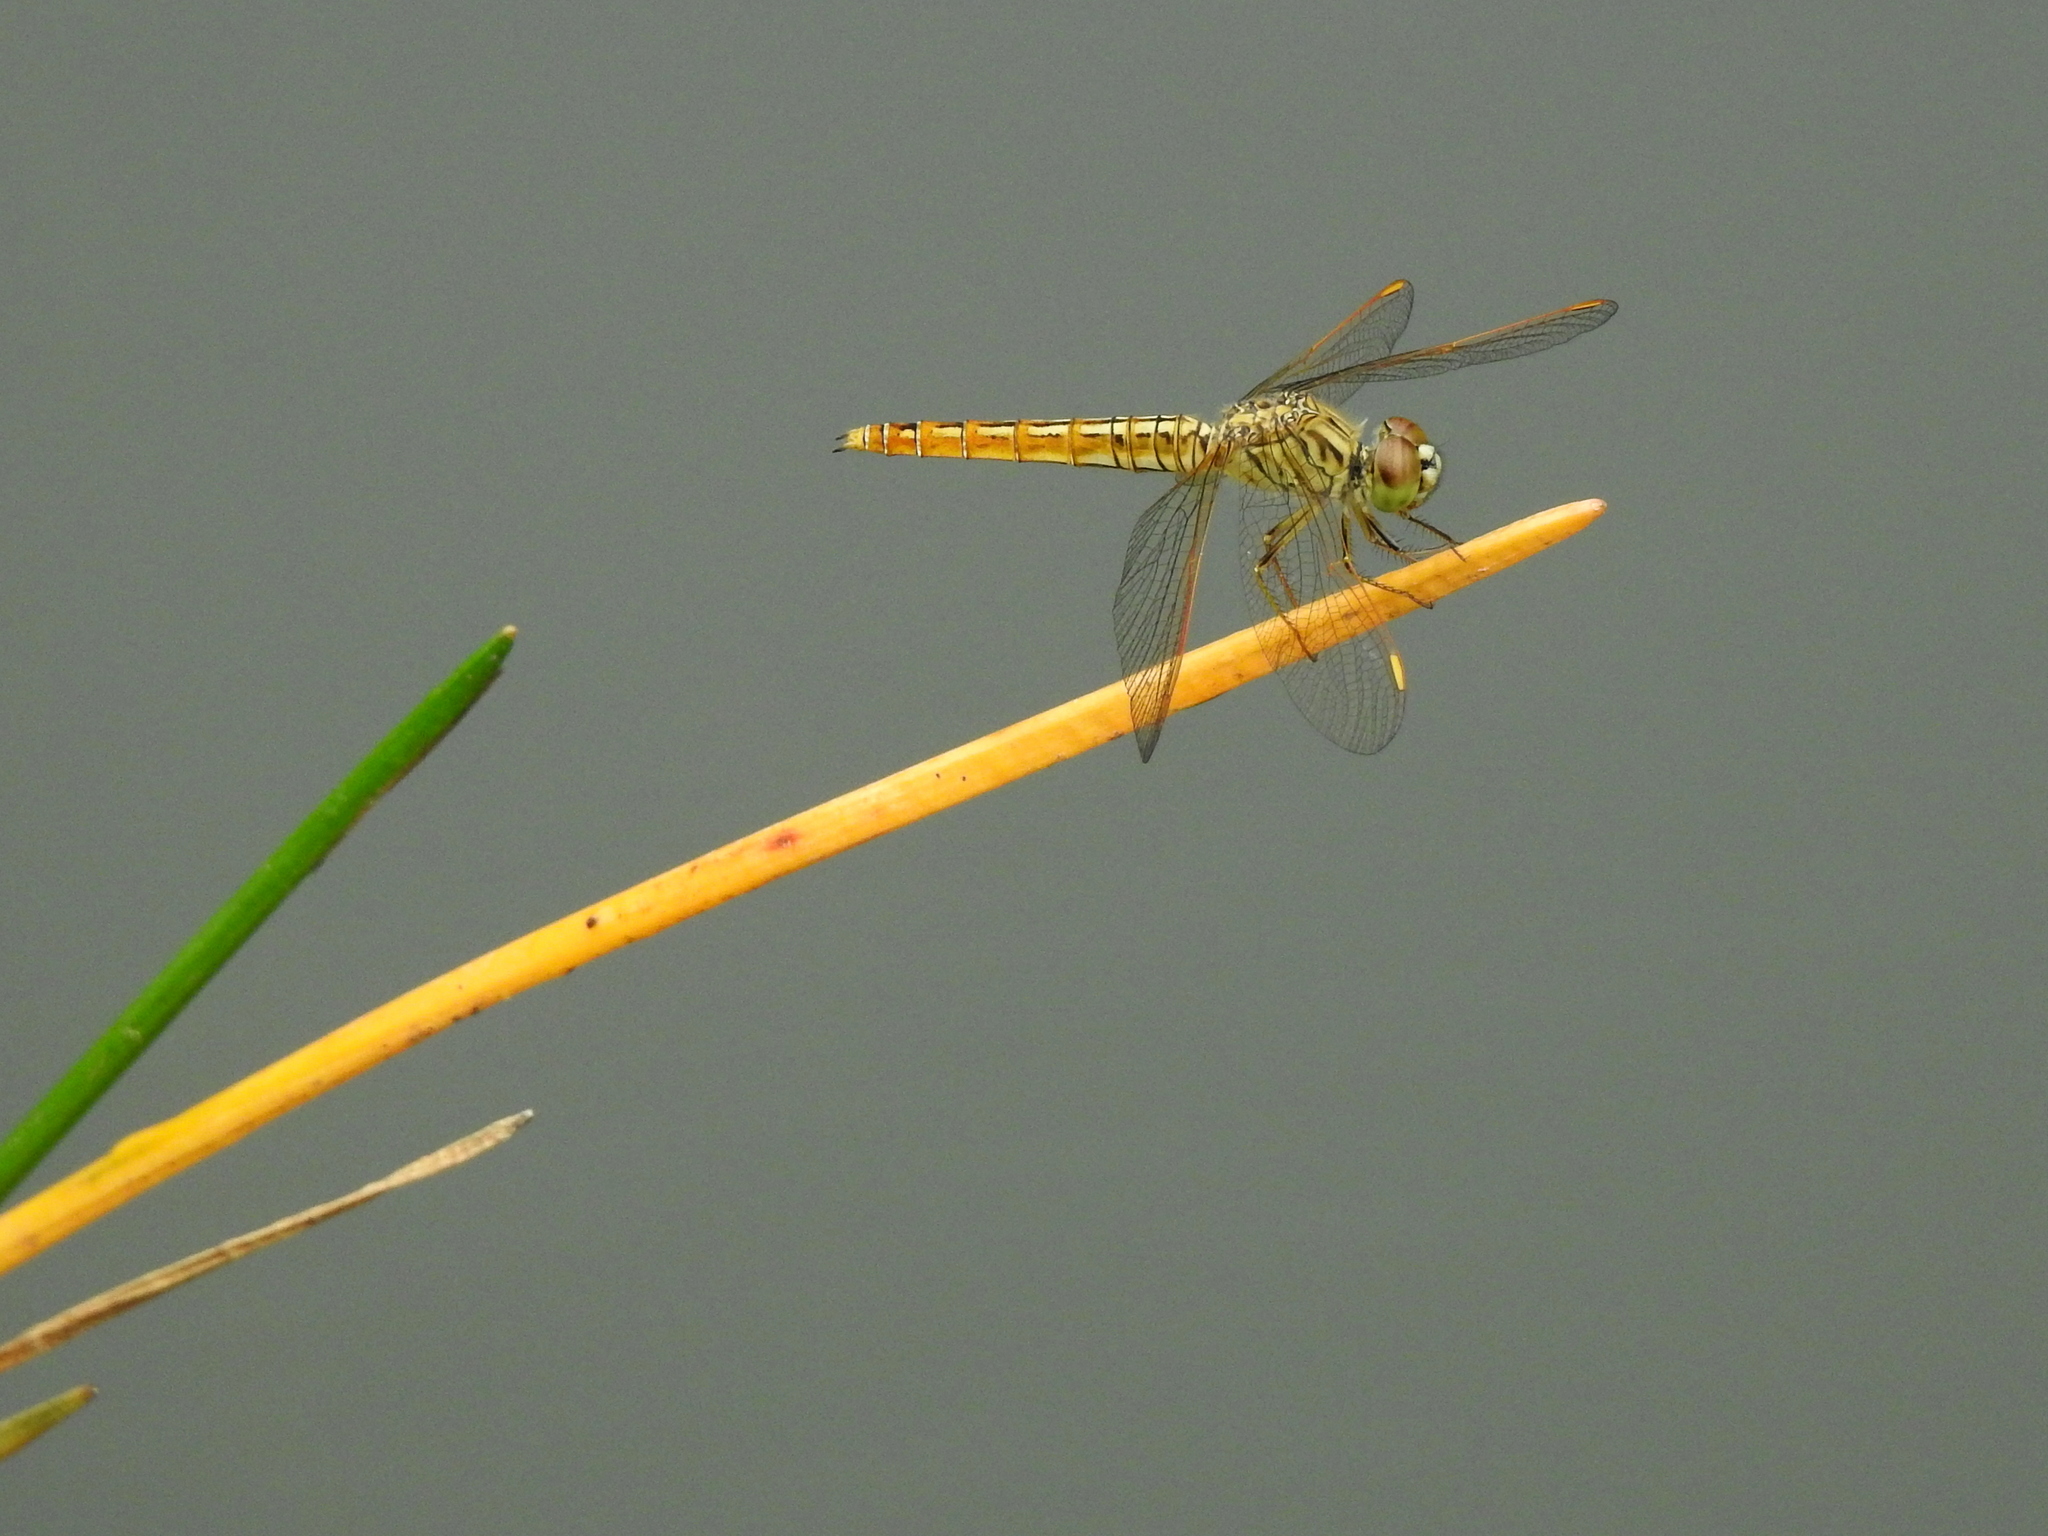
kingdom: Animalia
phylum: Arthropoda
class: Insecta
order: Odonata
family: Libellulidae
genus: Brachythemis
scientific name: Brachythemis contaminata
